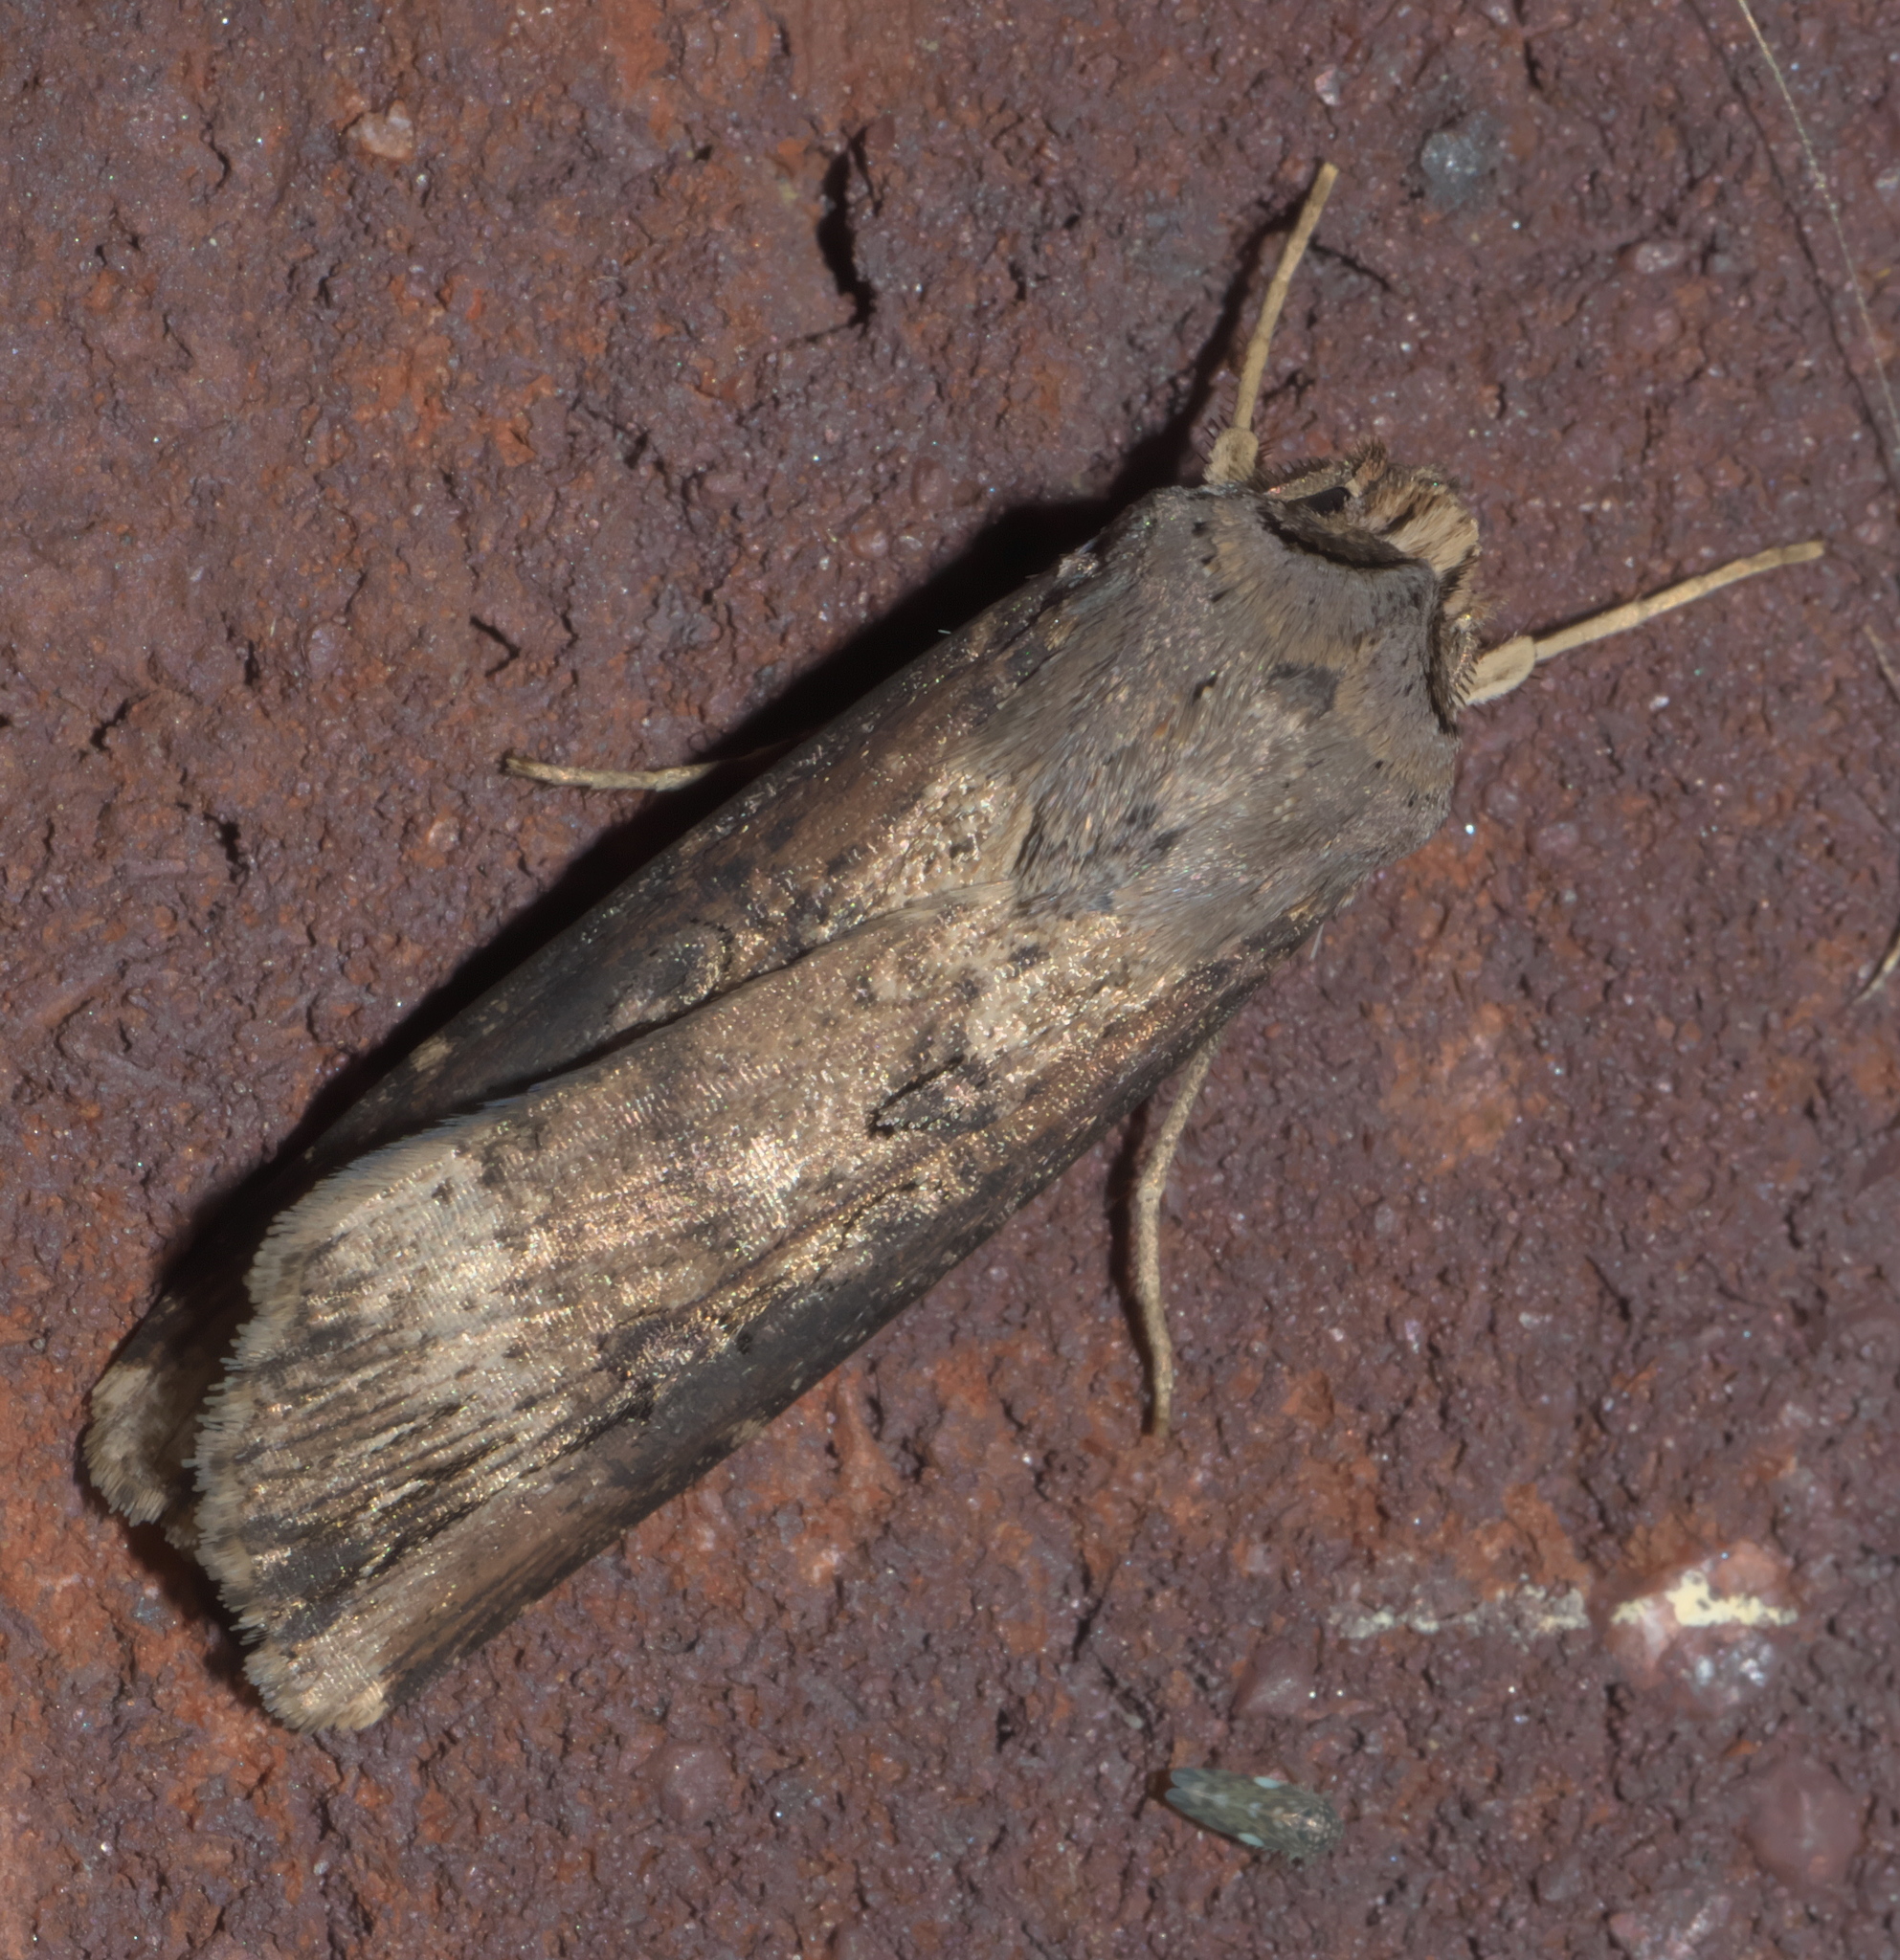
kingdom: Animalia
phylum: Arthropoda
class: Insecta
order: Lepidoptera
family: Noctuidae
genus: Agrotis
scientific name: Agrotis ipsilon
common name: Dark sword-grass
